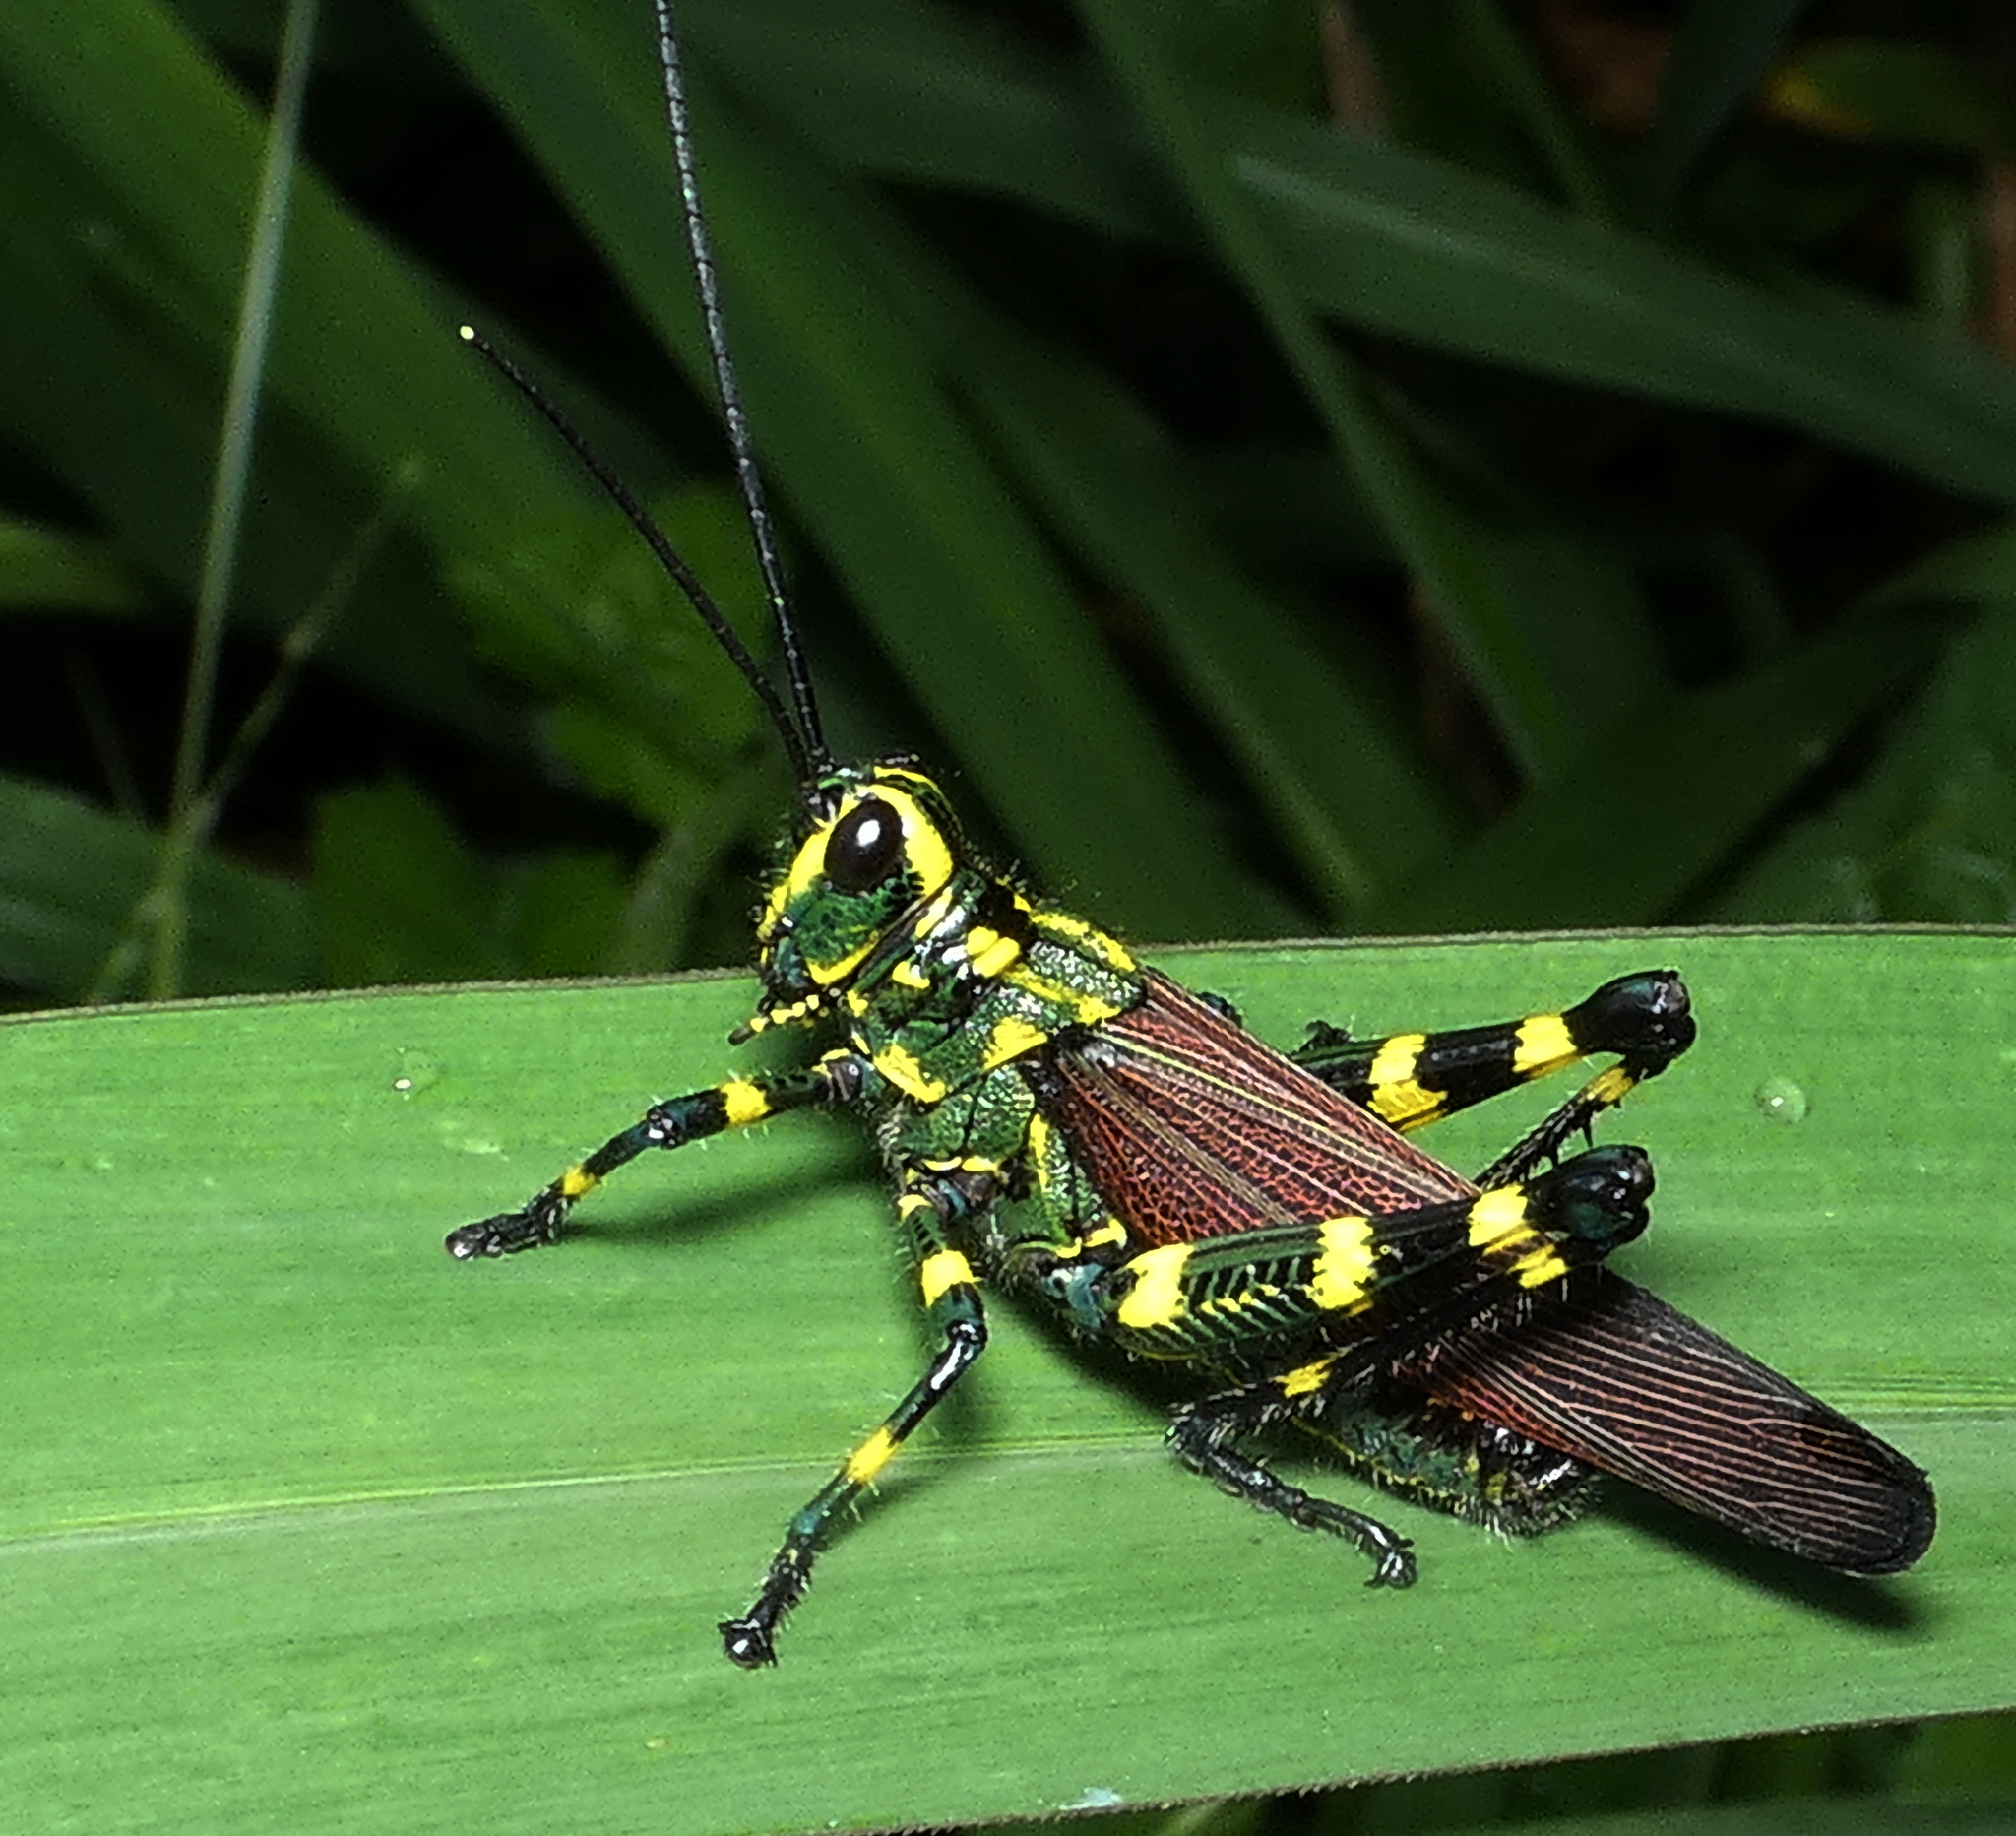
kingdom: Animalia
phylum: Arthropoda
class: Insecta
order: Orthoptera
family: Romaleidae
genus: Chromacris
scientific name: Chromacris speciosa
